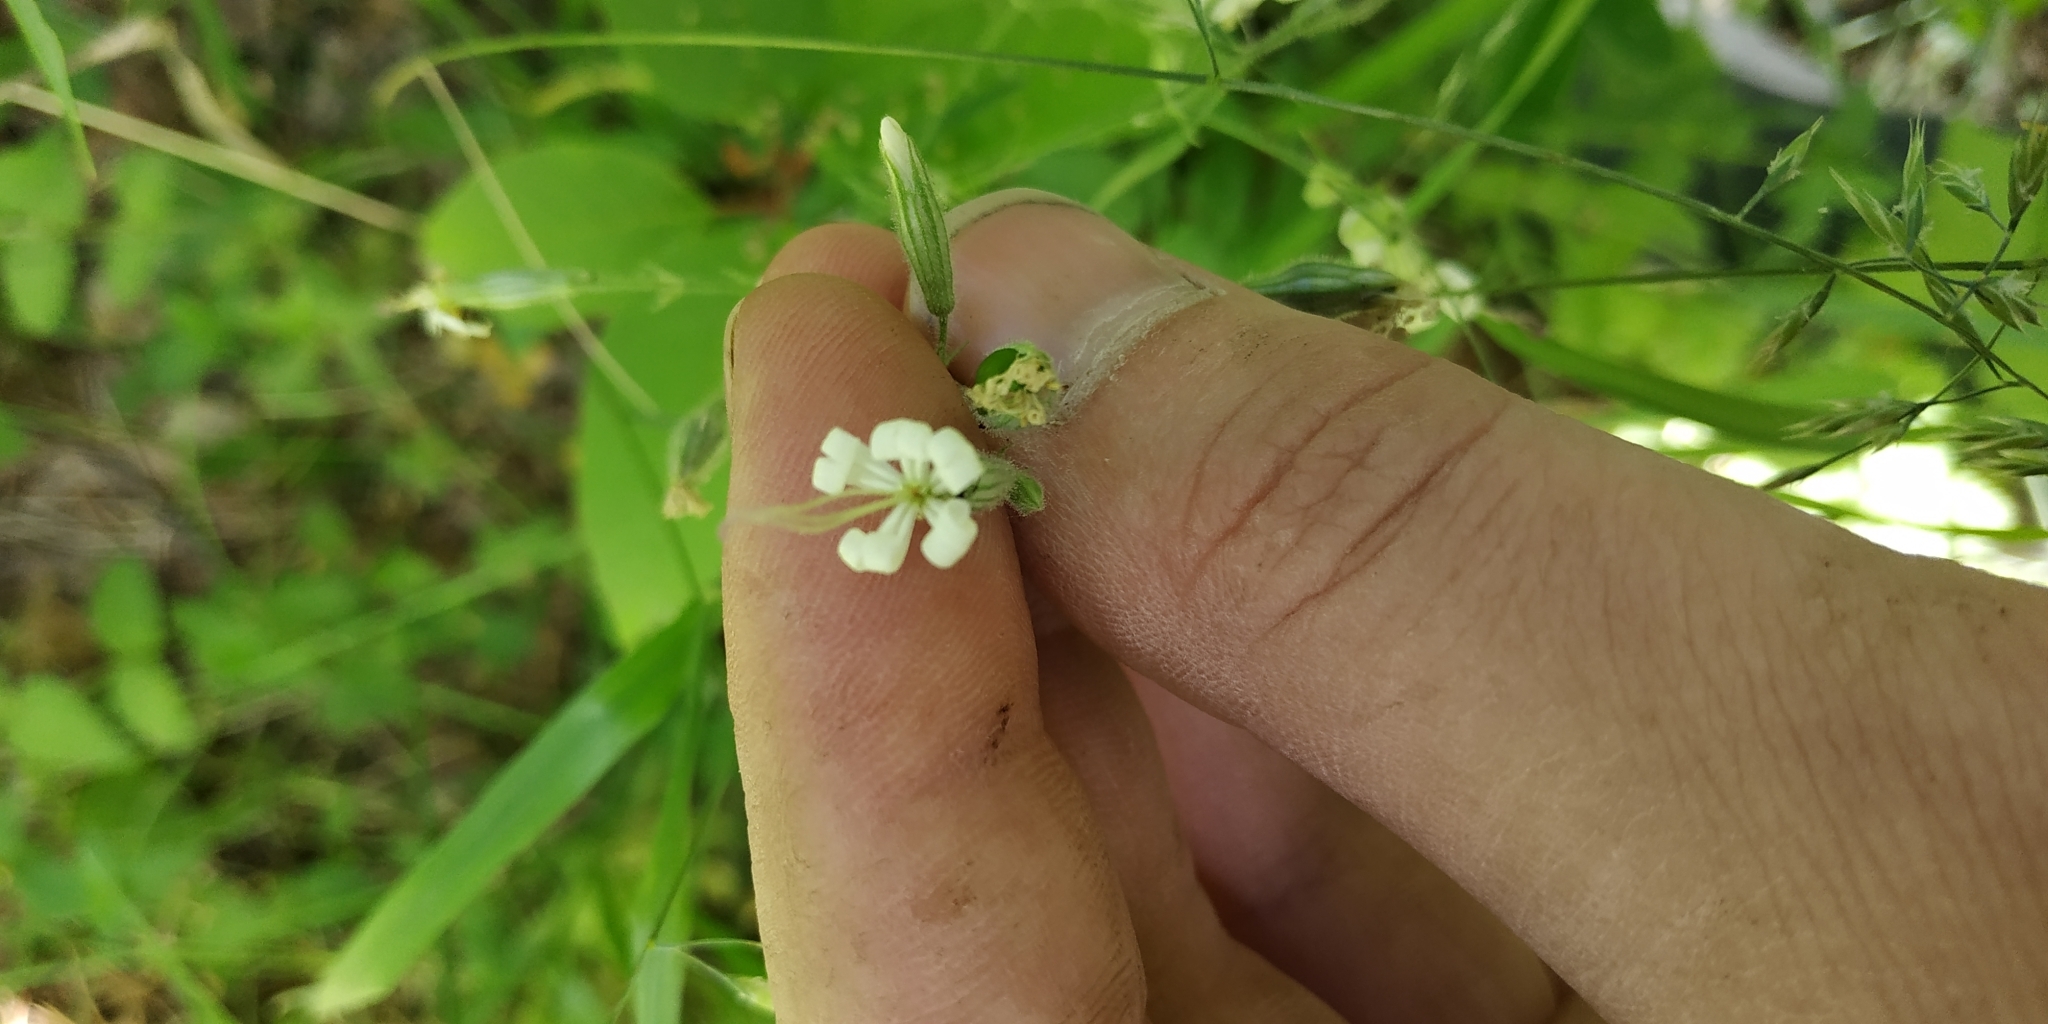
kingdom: Plantae
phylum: Tracheophyta
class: Magnoliopsida
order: Caryophyllales
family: Caryophyllaceae
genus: Silene
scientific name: Silene nutans
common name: Nottingham catchfly
